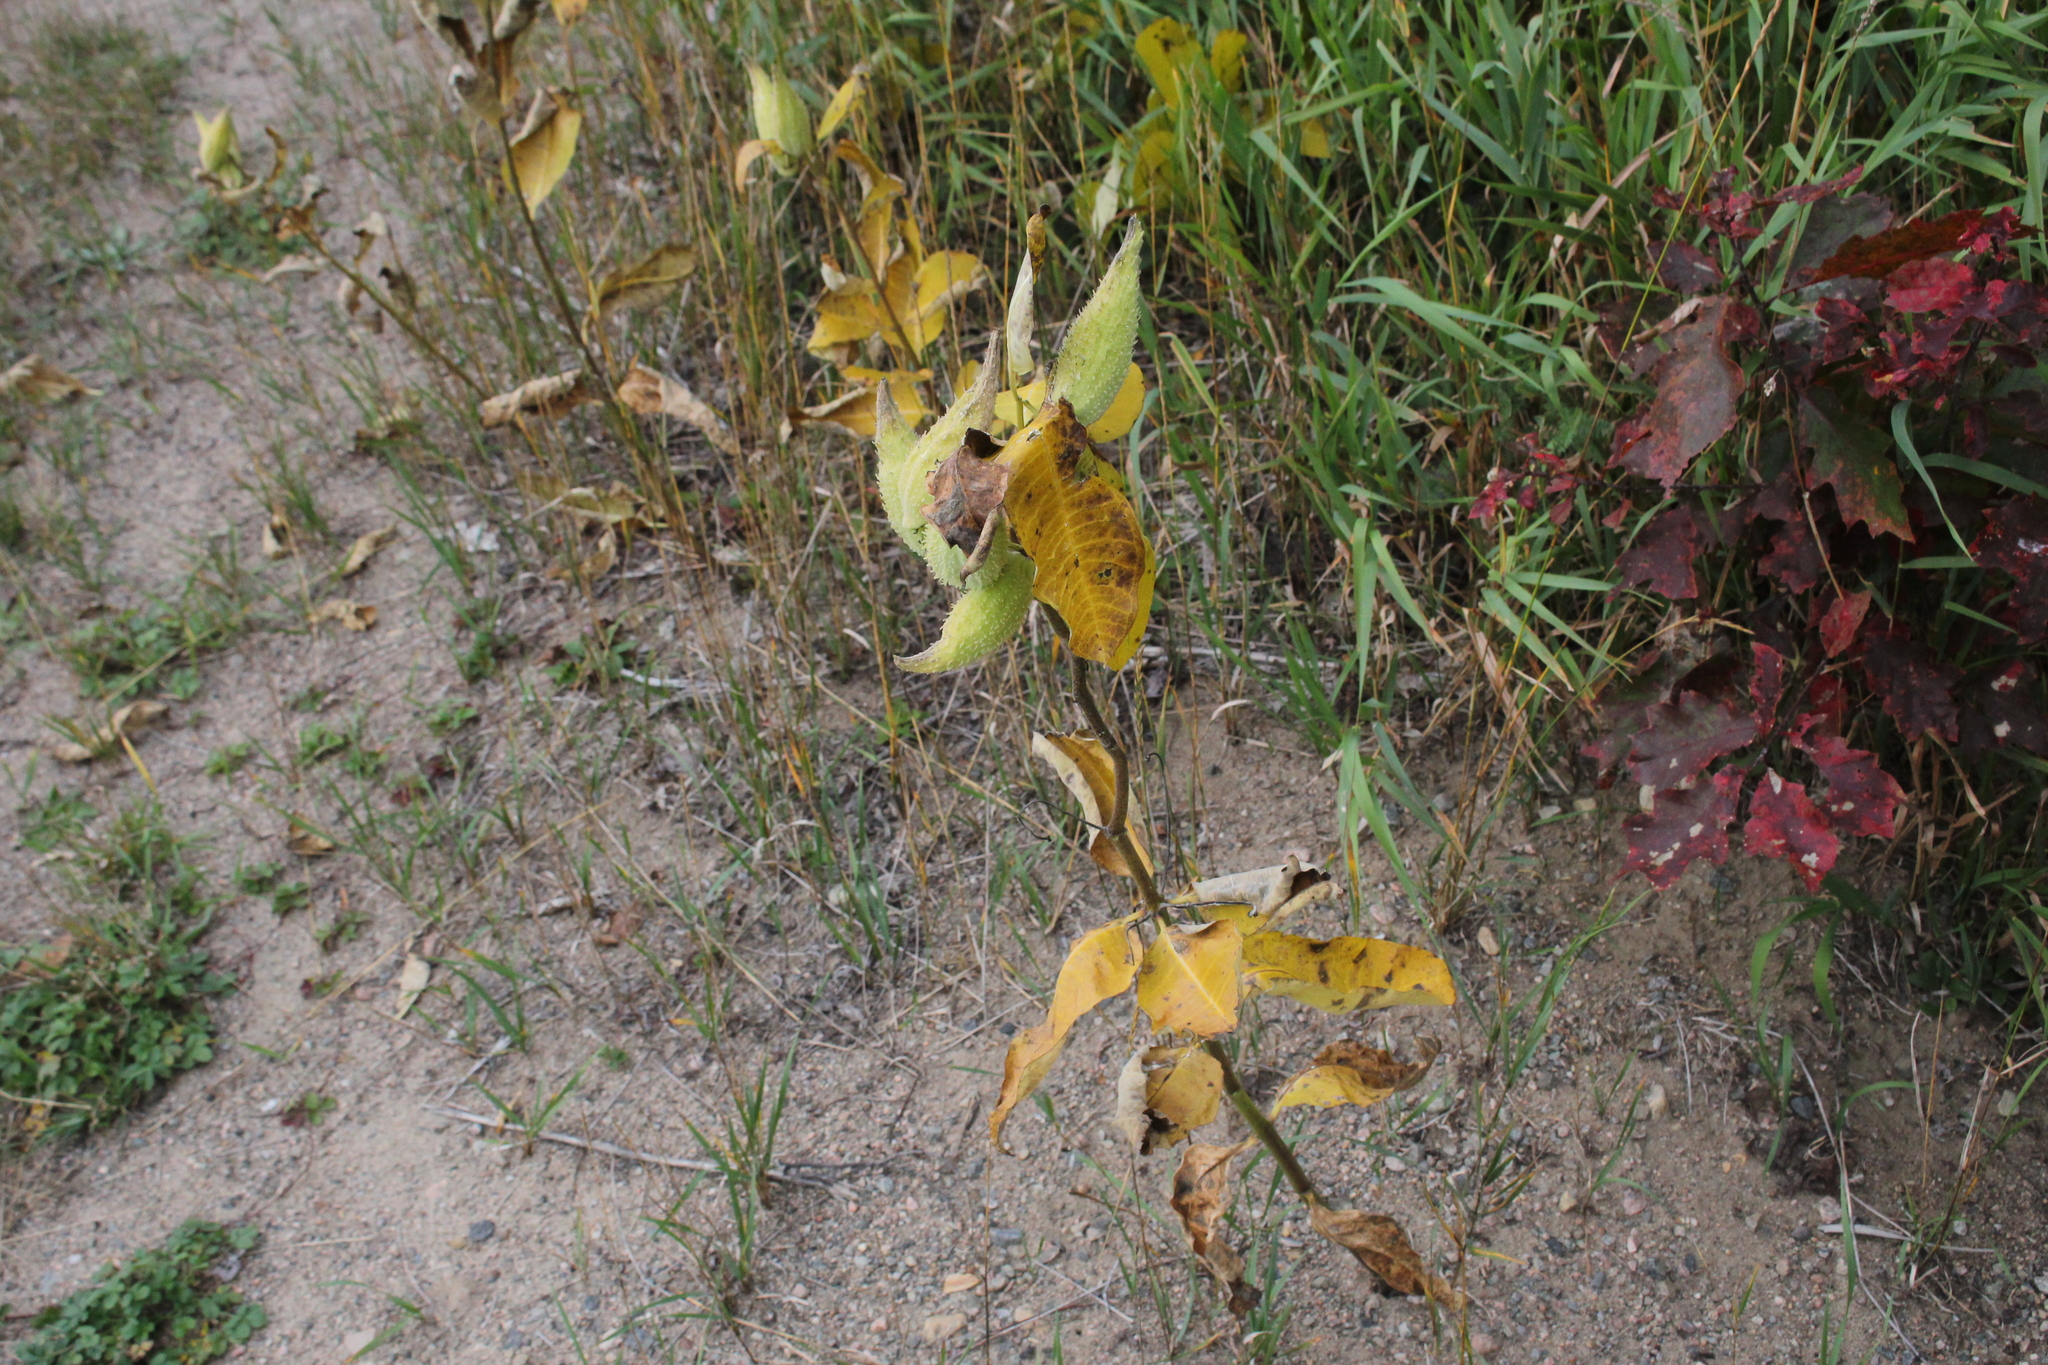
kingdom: Plantae
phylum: Tracheophyta
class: Magnoliopsida
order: Gentianales
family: Apocynaceae
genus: Asclepias
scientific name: Asclepias syriaca
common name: Common milkweed
